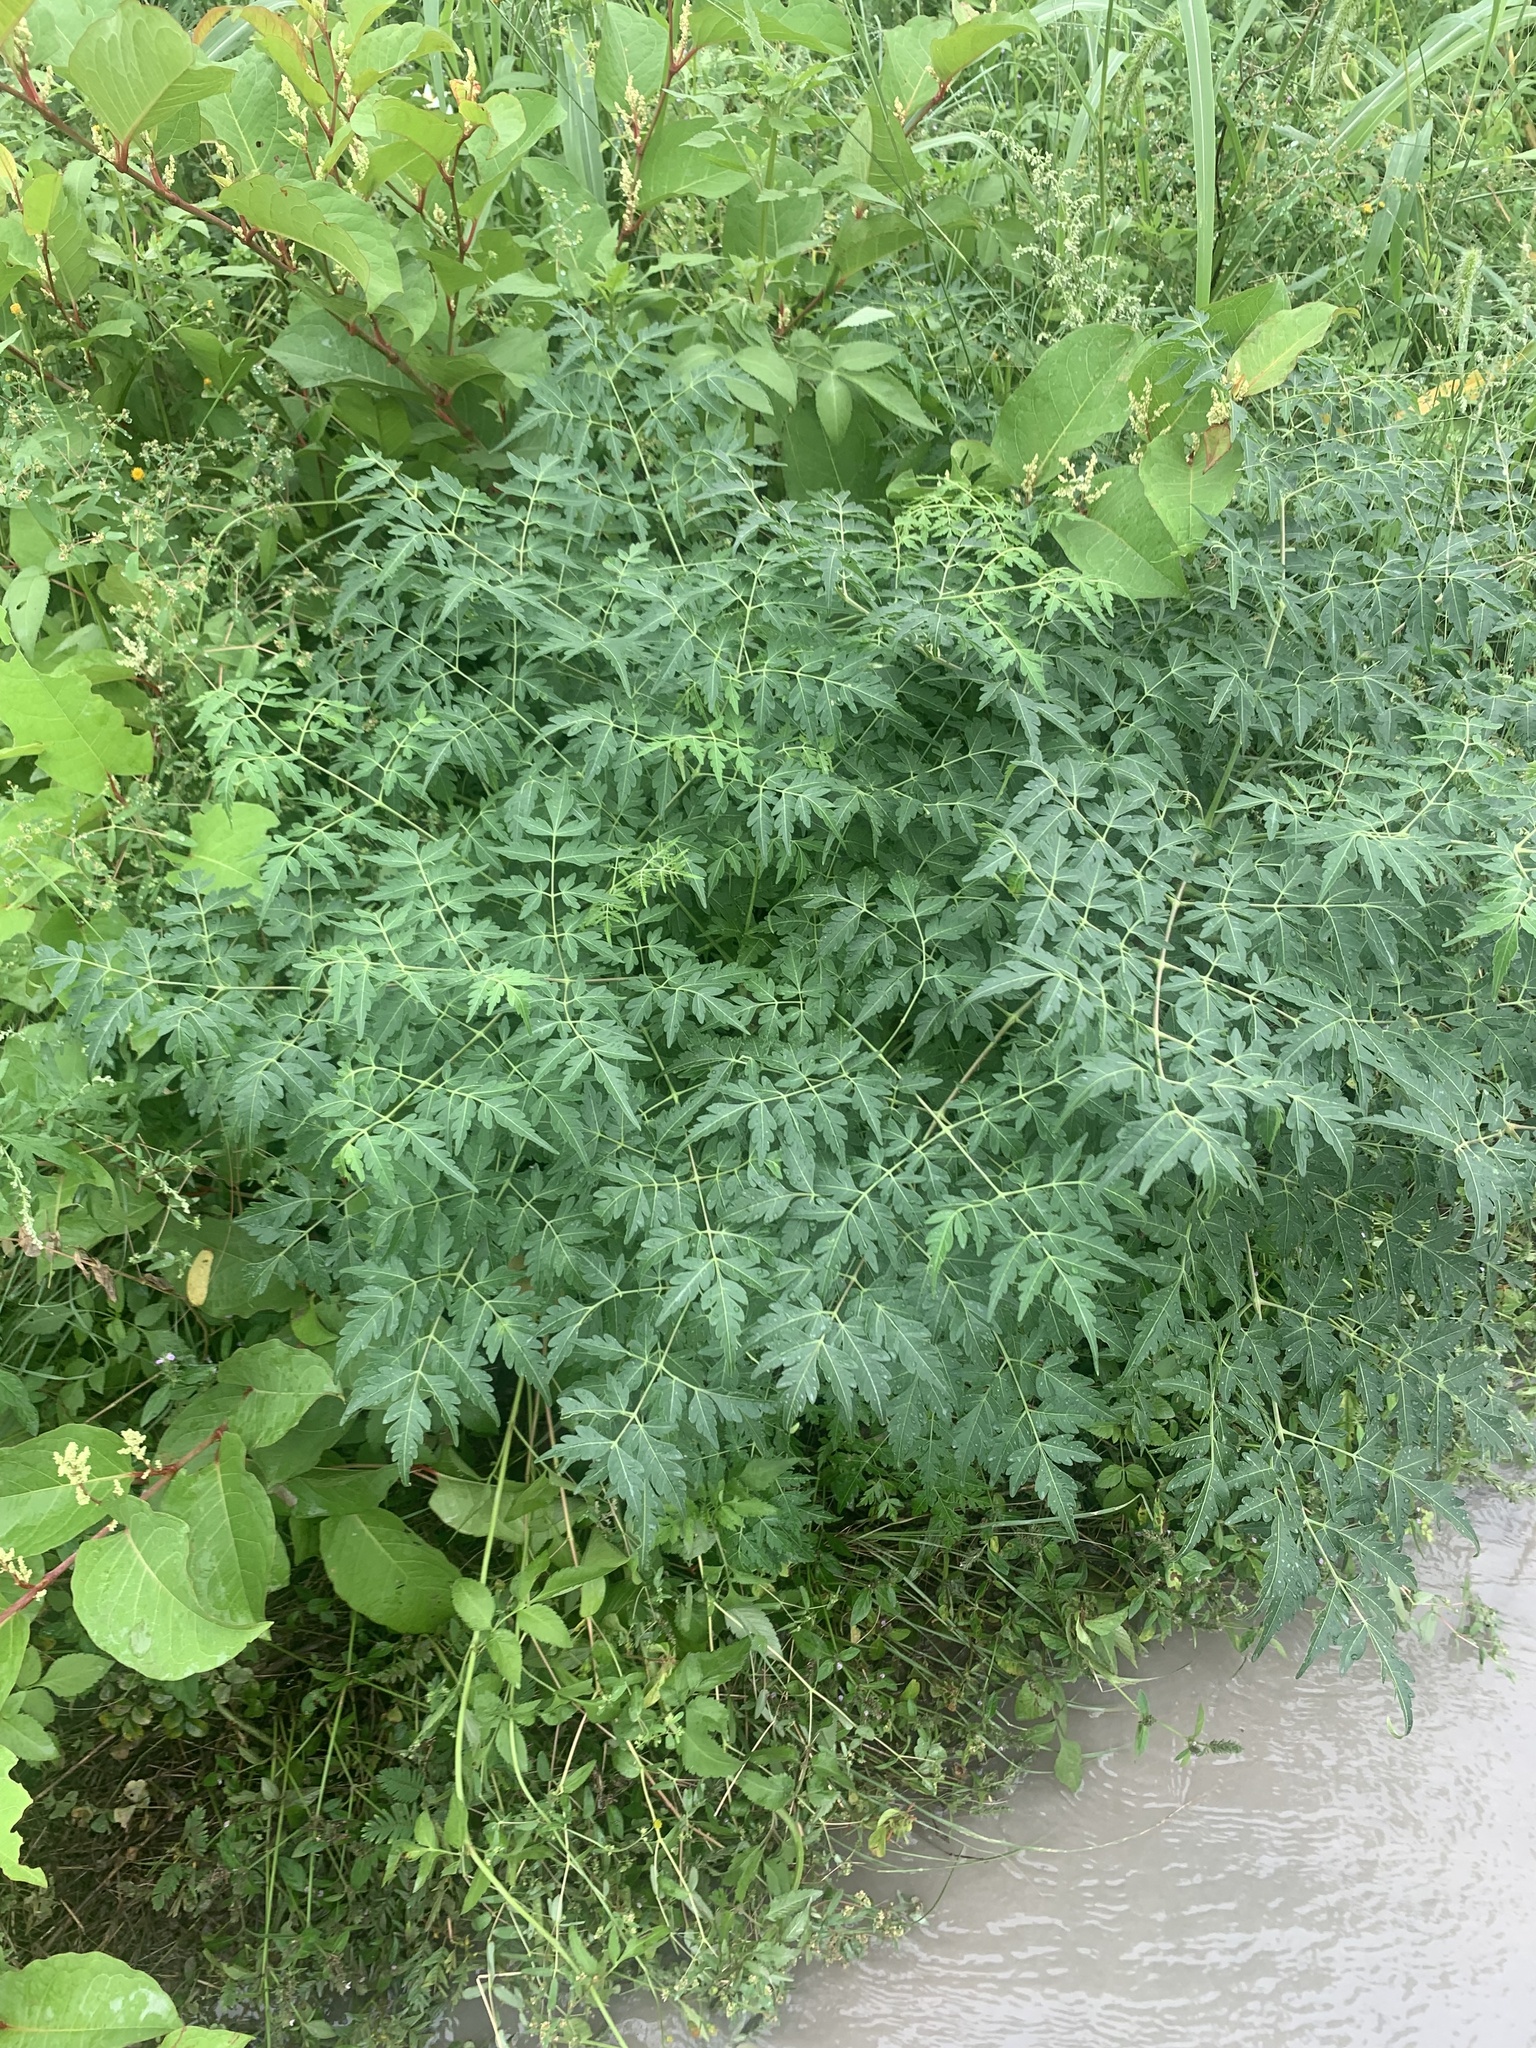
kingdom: Plantae
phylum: Tracheophyta
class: Magnoliopsida
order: Sapindales
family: Meliaceae
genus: Melia
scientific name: Melia azedarach
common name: Chinaberrytree
